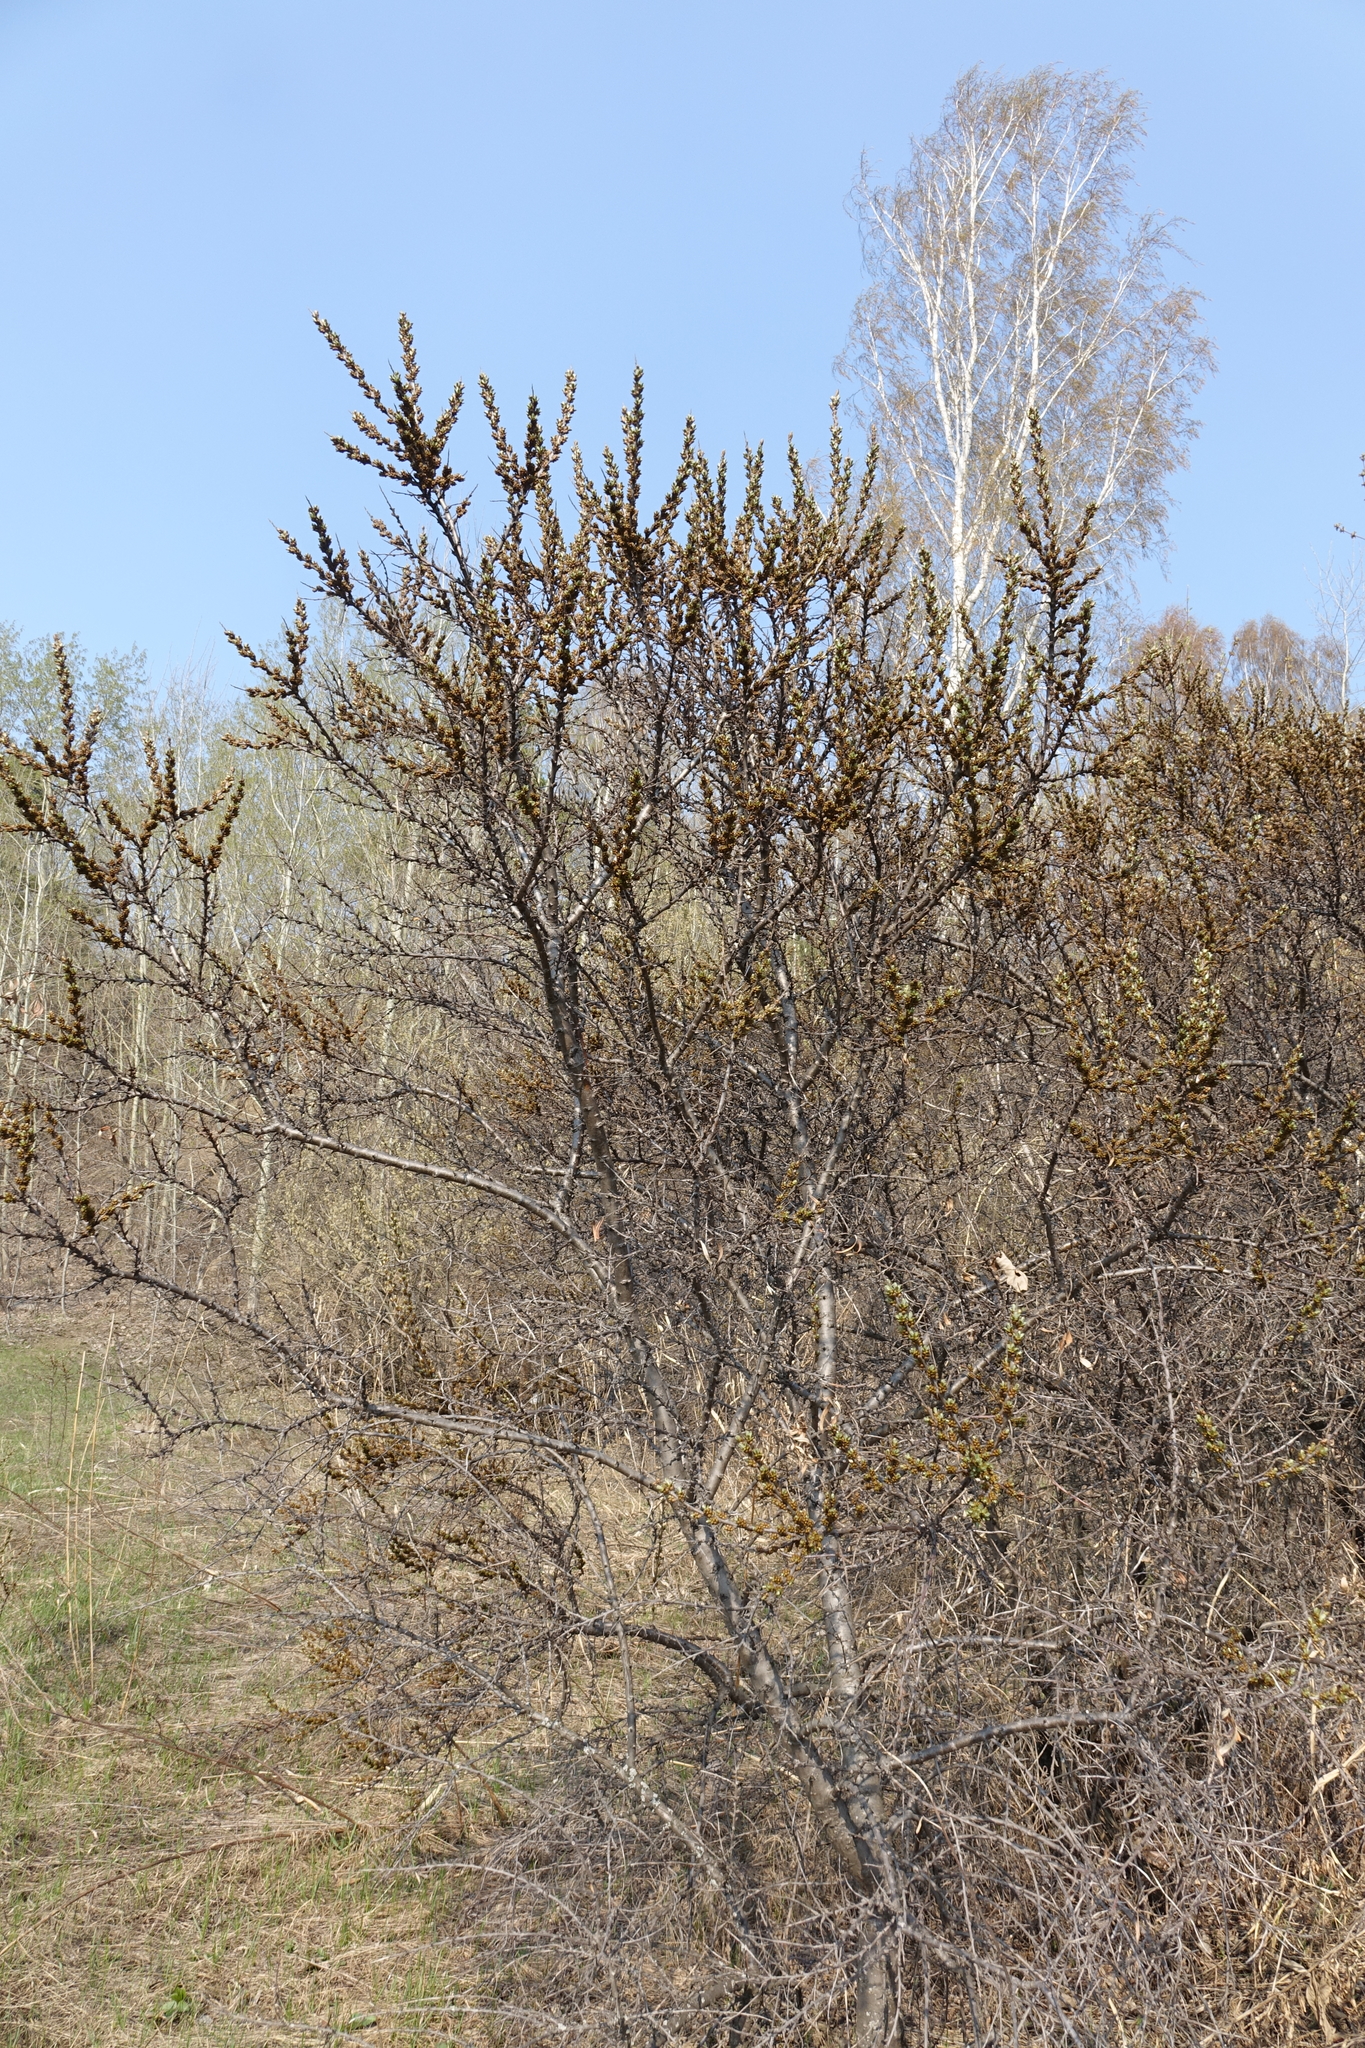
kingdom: Plantae
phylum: Tracheophyta
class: Magnoliopsida
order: Rosales
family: Elaeagnaceae
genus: Hippophae
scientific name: Hippophae rhamnoides
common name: Sea-buckthorn
